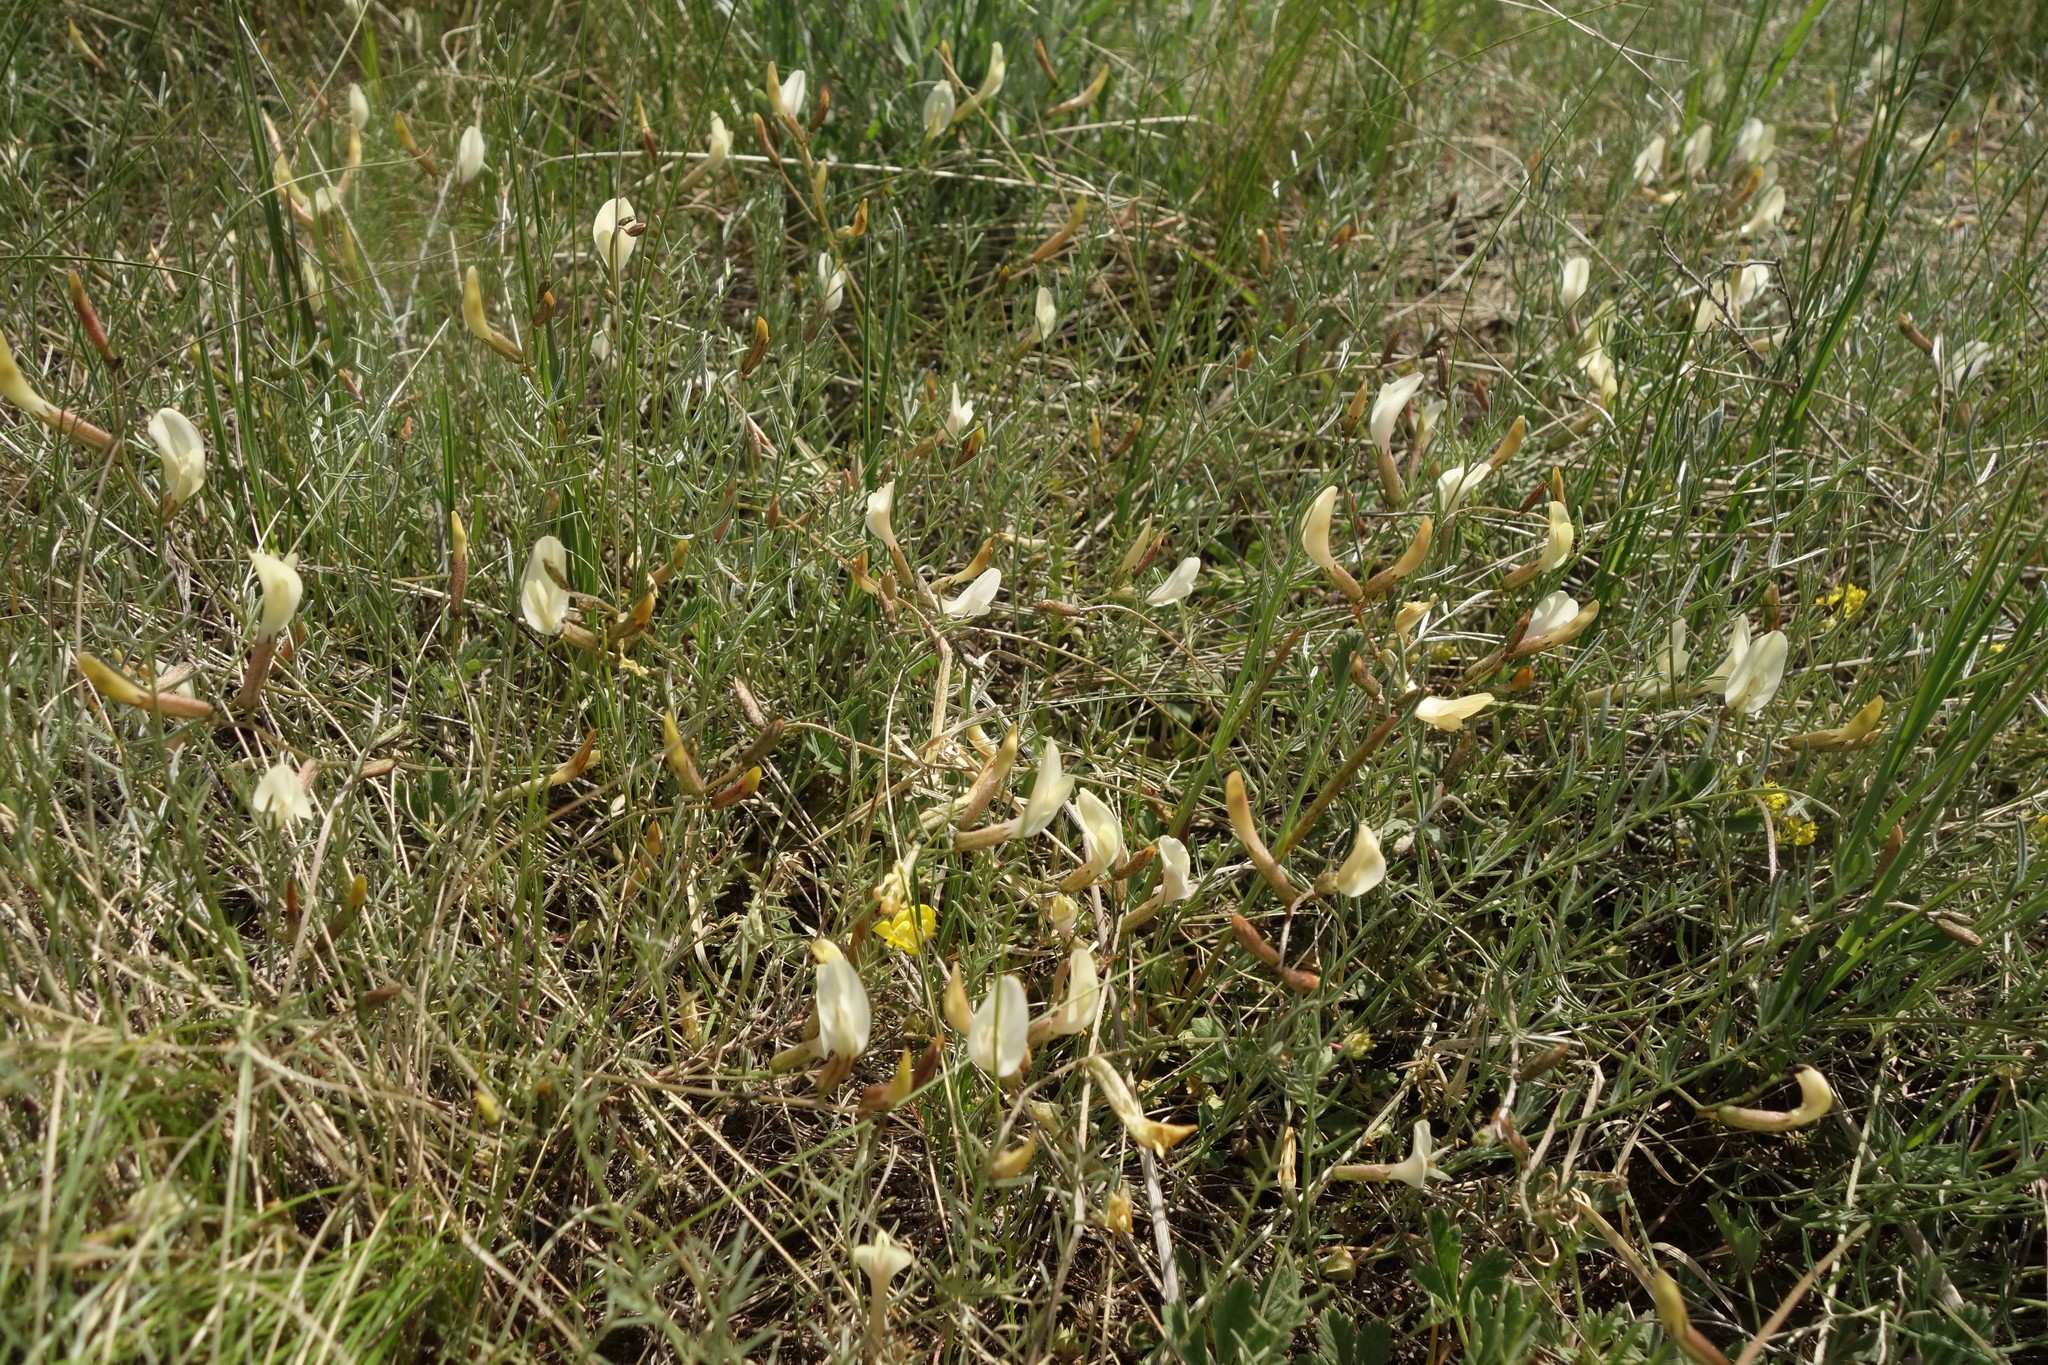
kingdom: Plantae
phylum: Tracheophyta
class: Magnoliopsida
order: Fabales
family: Fabaceae
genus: Astragalus
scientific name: Astragalus ucrainicus
